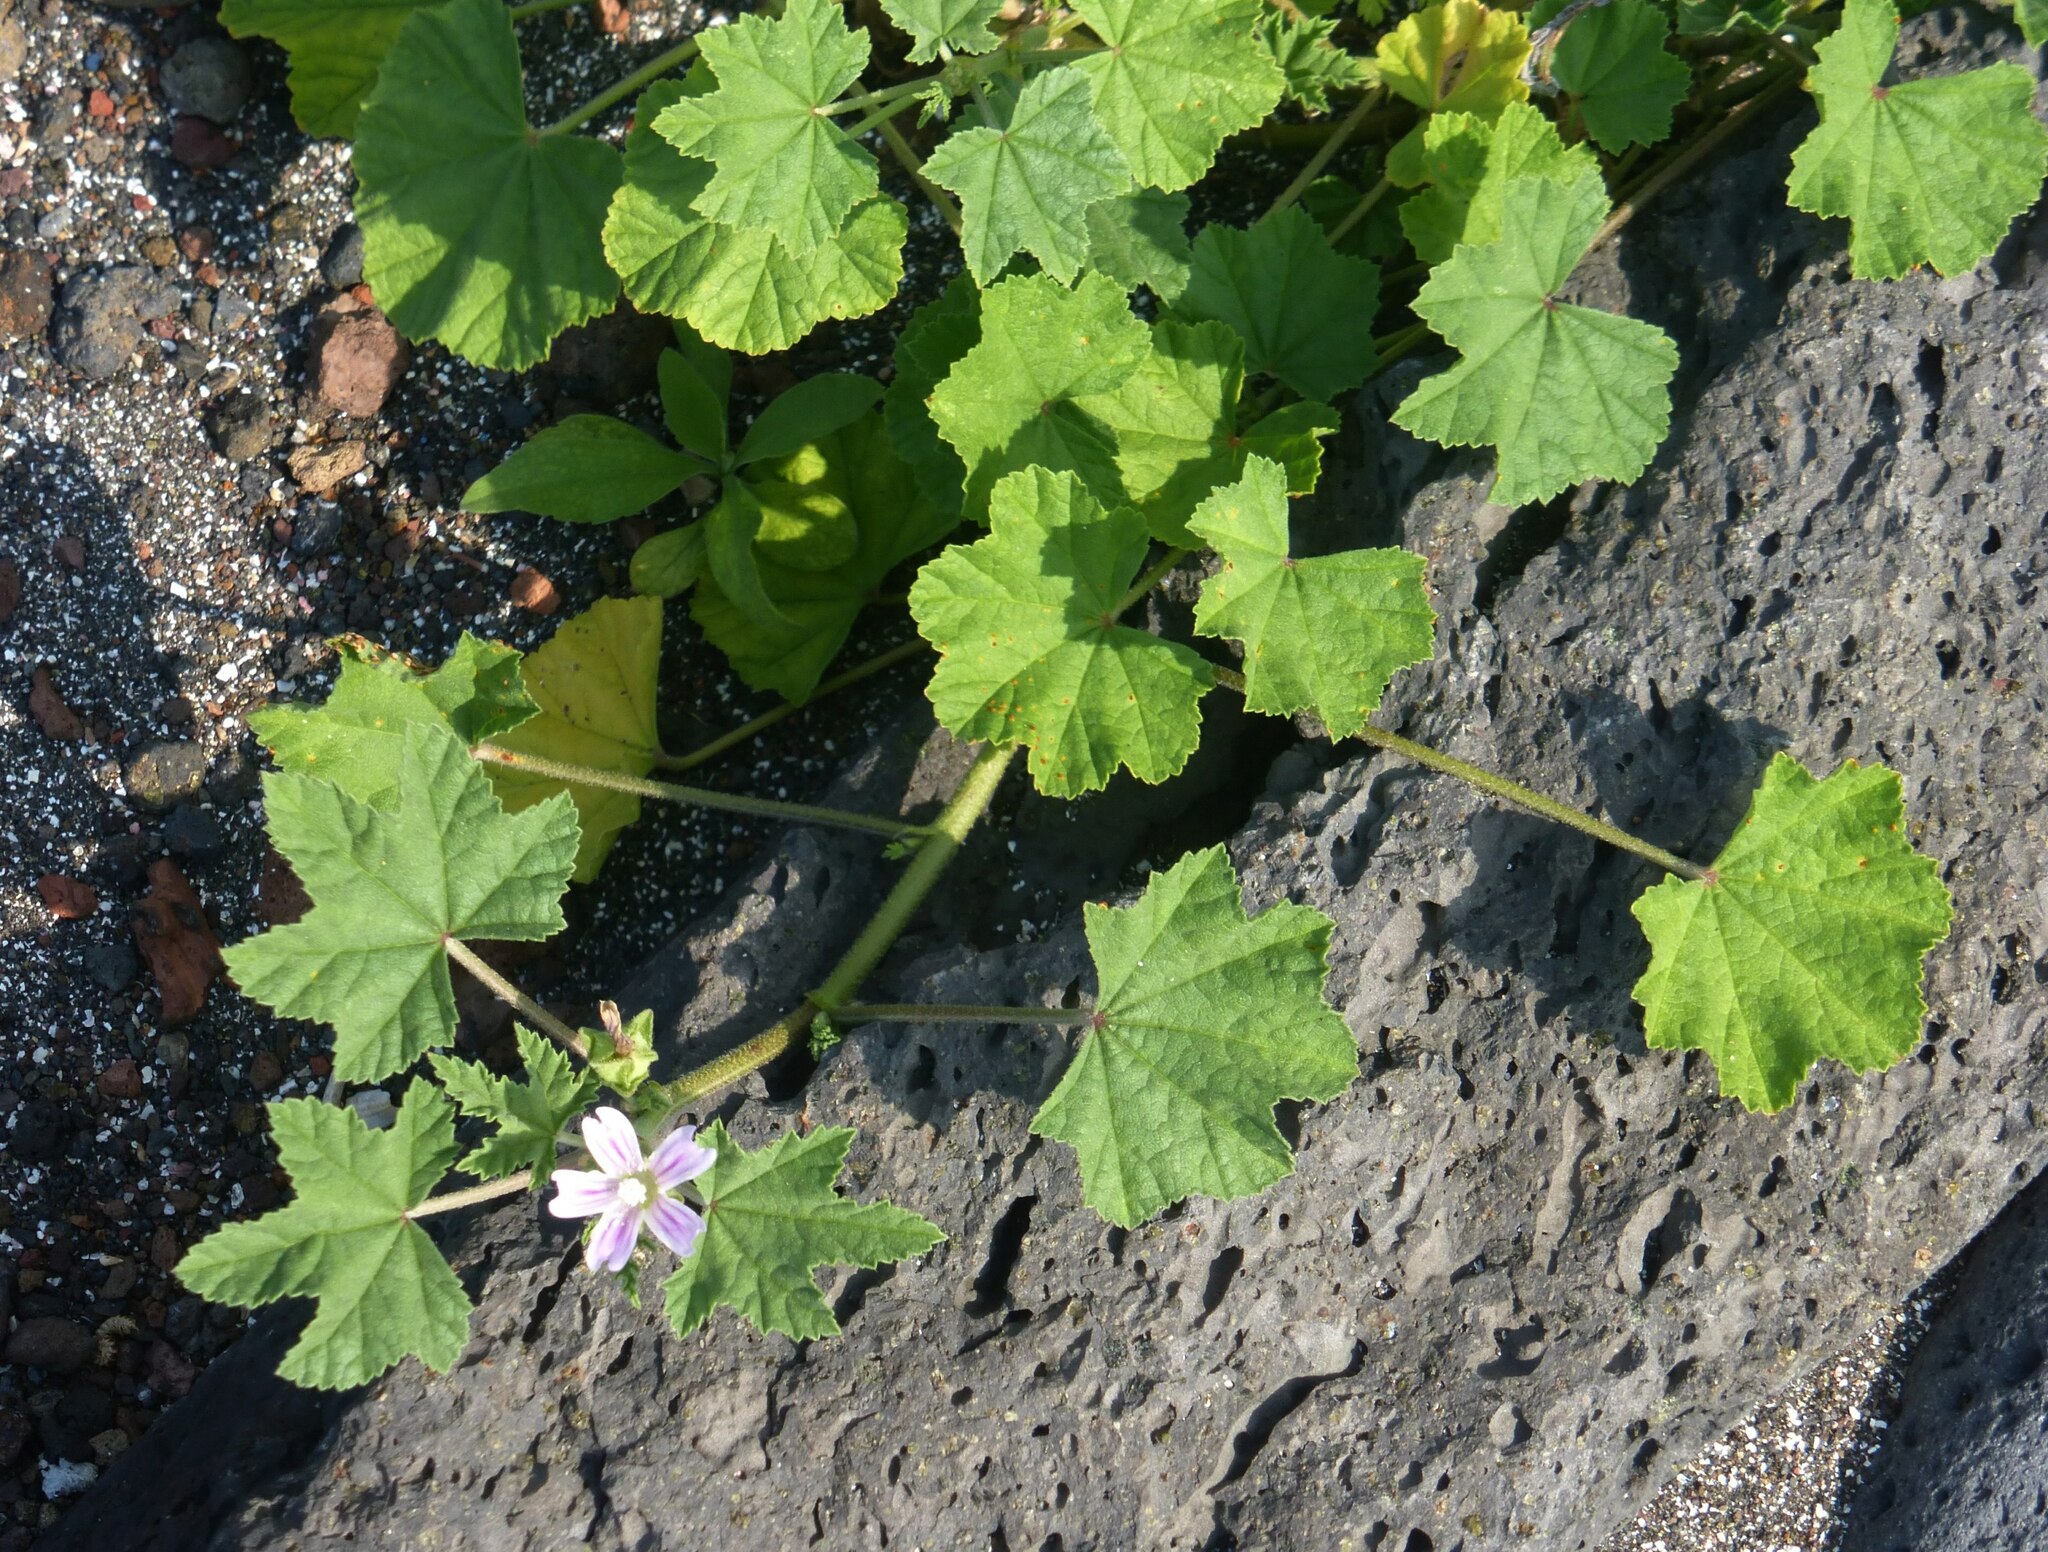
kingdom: Plantae
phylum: Tracheophyta
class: Magnoliopsida
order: Malvales
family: Malvaceae
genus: Malva
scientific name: Malva multiflora
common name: Cheeseweed
